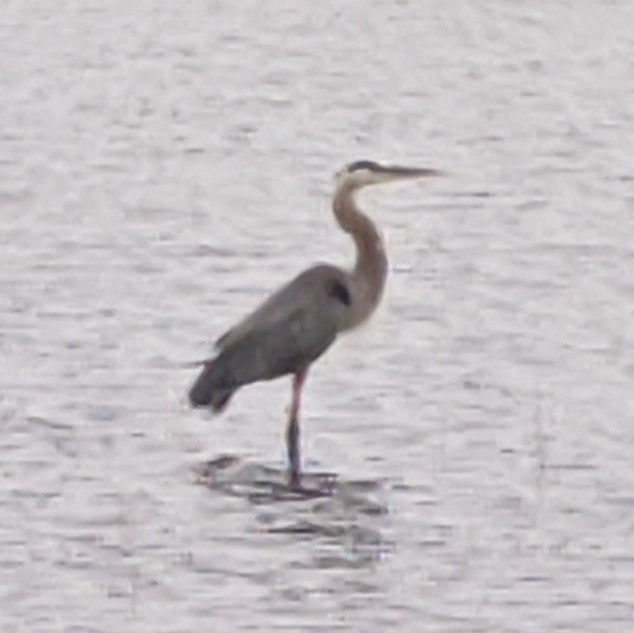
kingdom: Animalia
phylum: Chordata
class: Aves
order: Pelecaniformes
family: Ardeidae
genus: Ardea
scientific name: Ardea herodias
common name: Great blue heron
